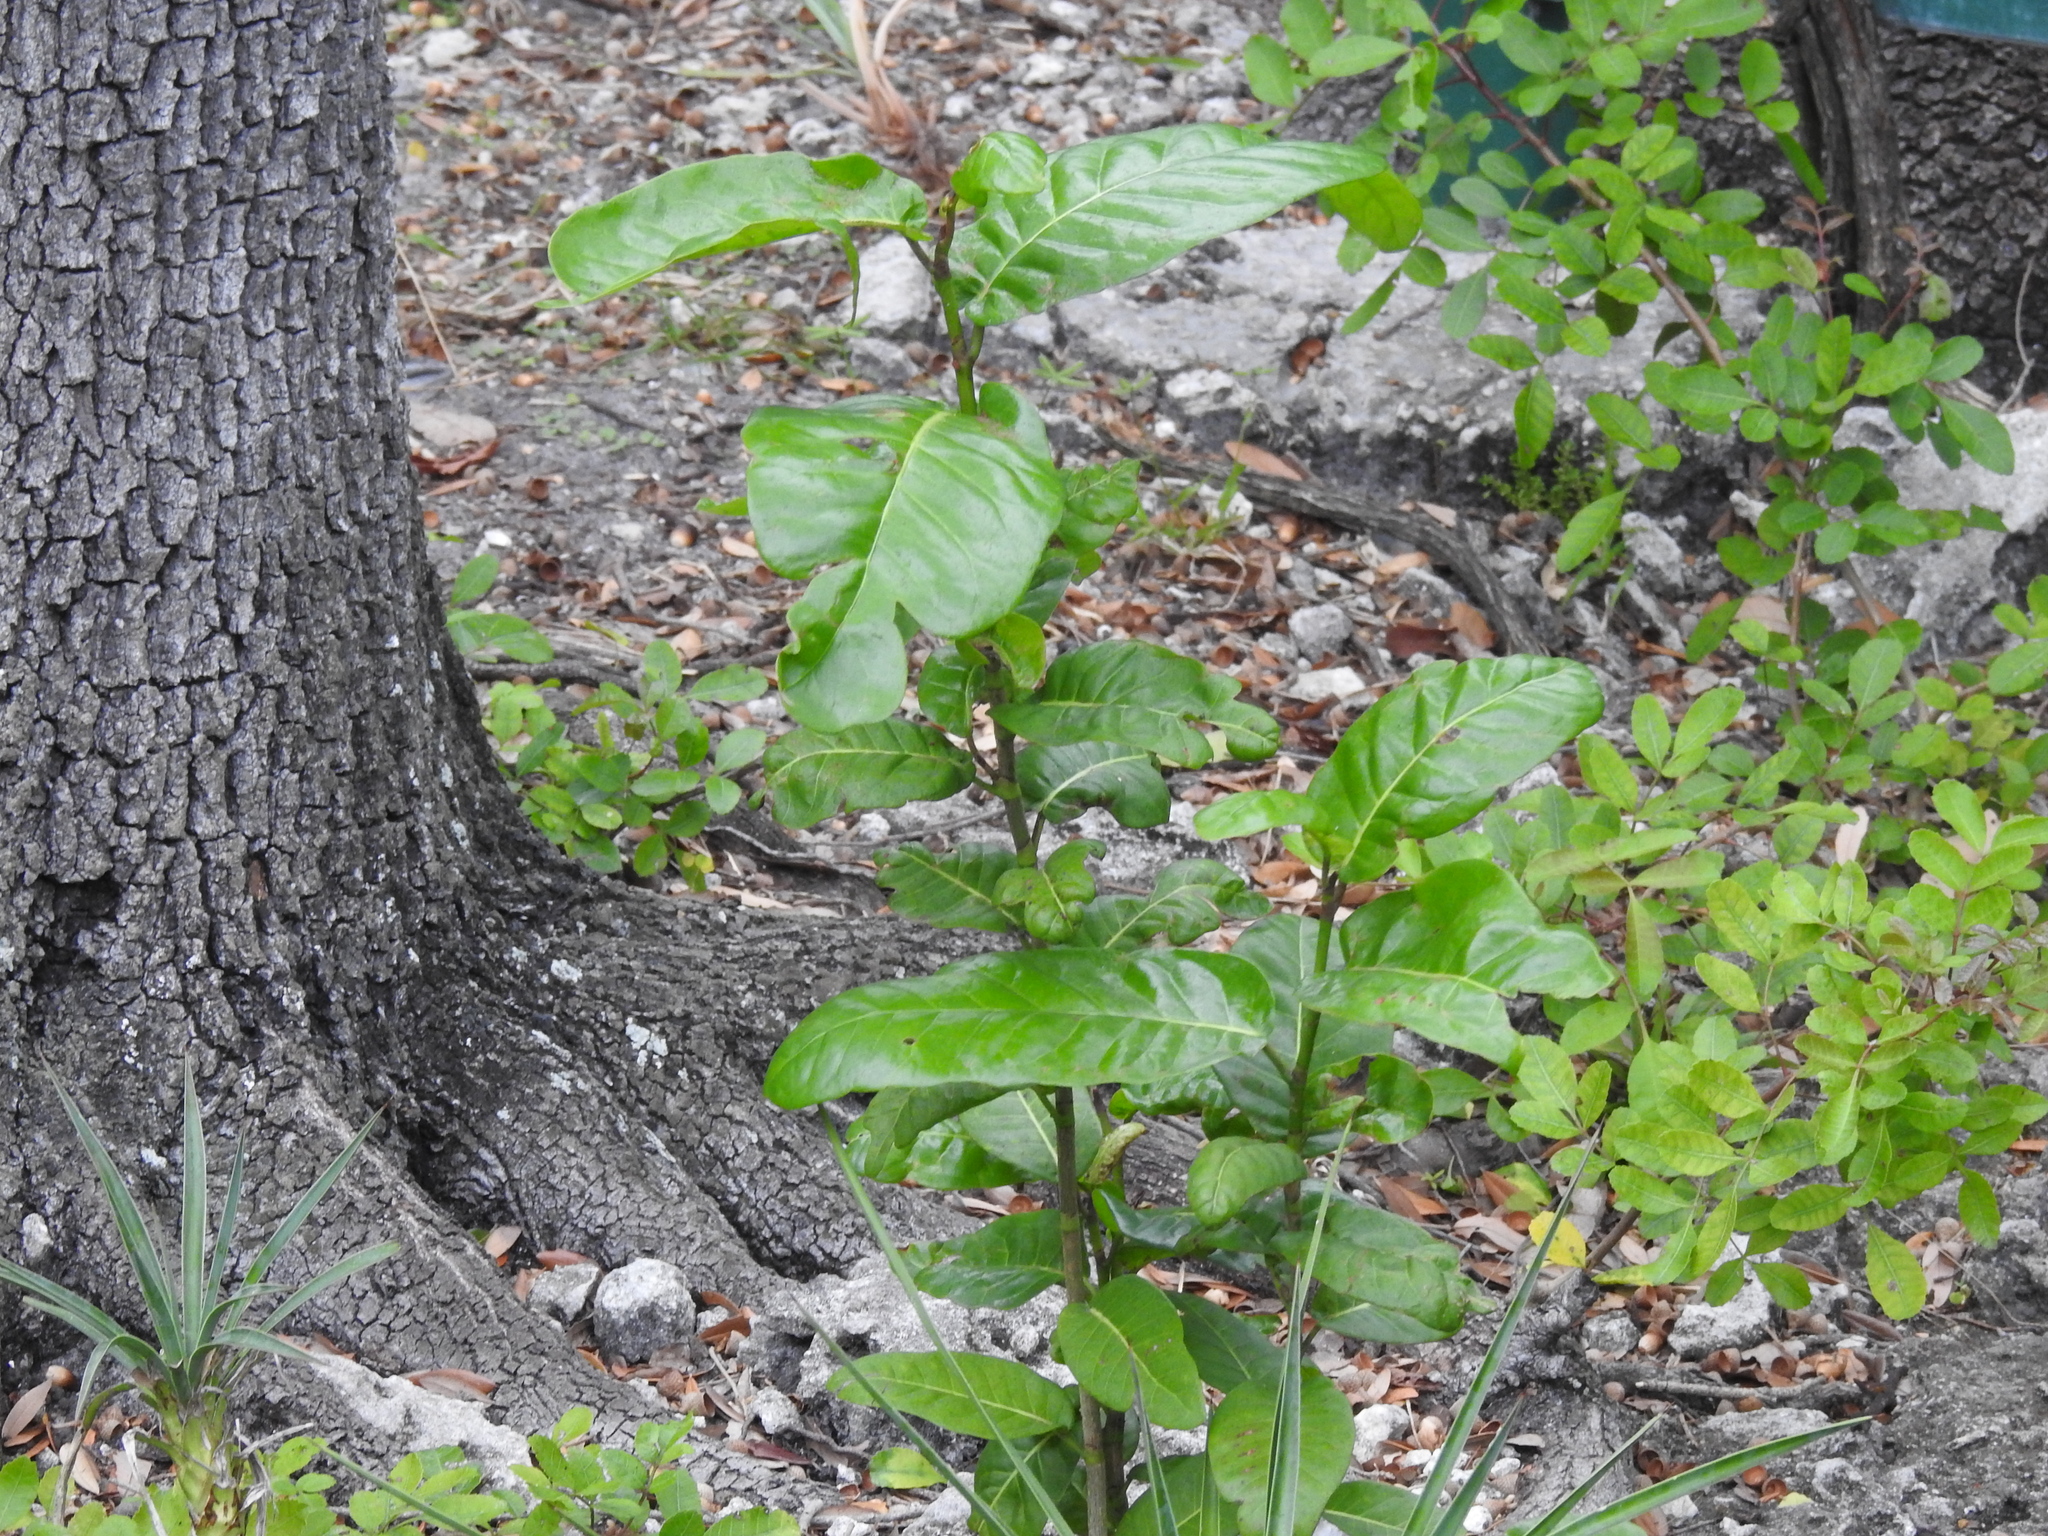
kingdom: Plantae
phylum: Tracheophyta
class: Magnoliopsida
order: Caryophyllales
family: Polygonaceae
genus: Coccoloba
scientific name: Coccoloba diversifolia
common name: Pigeon-plum
